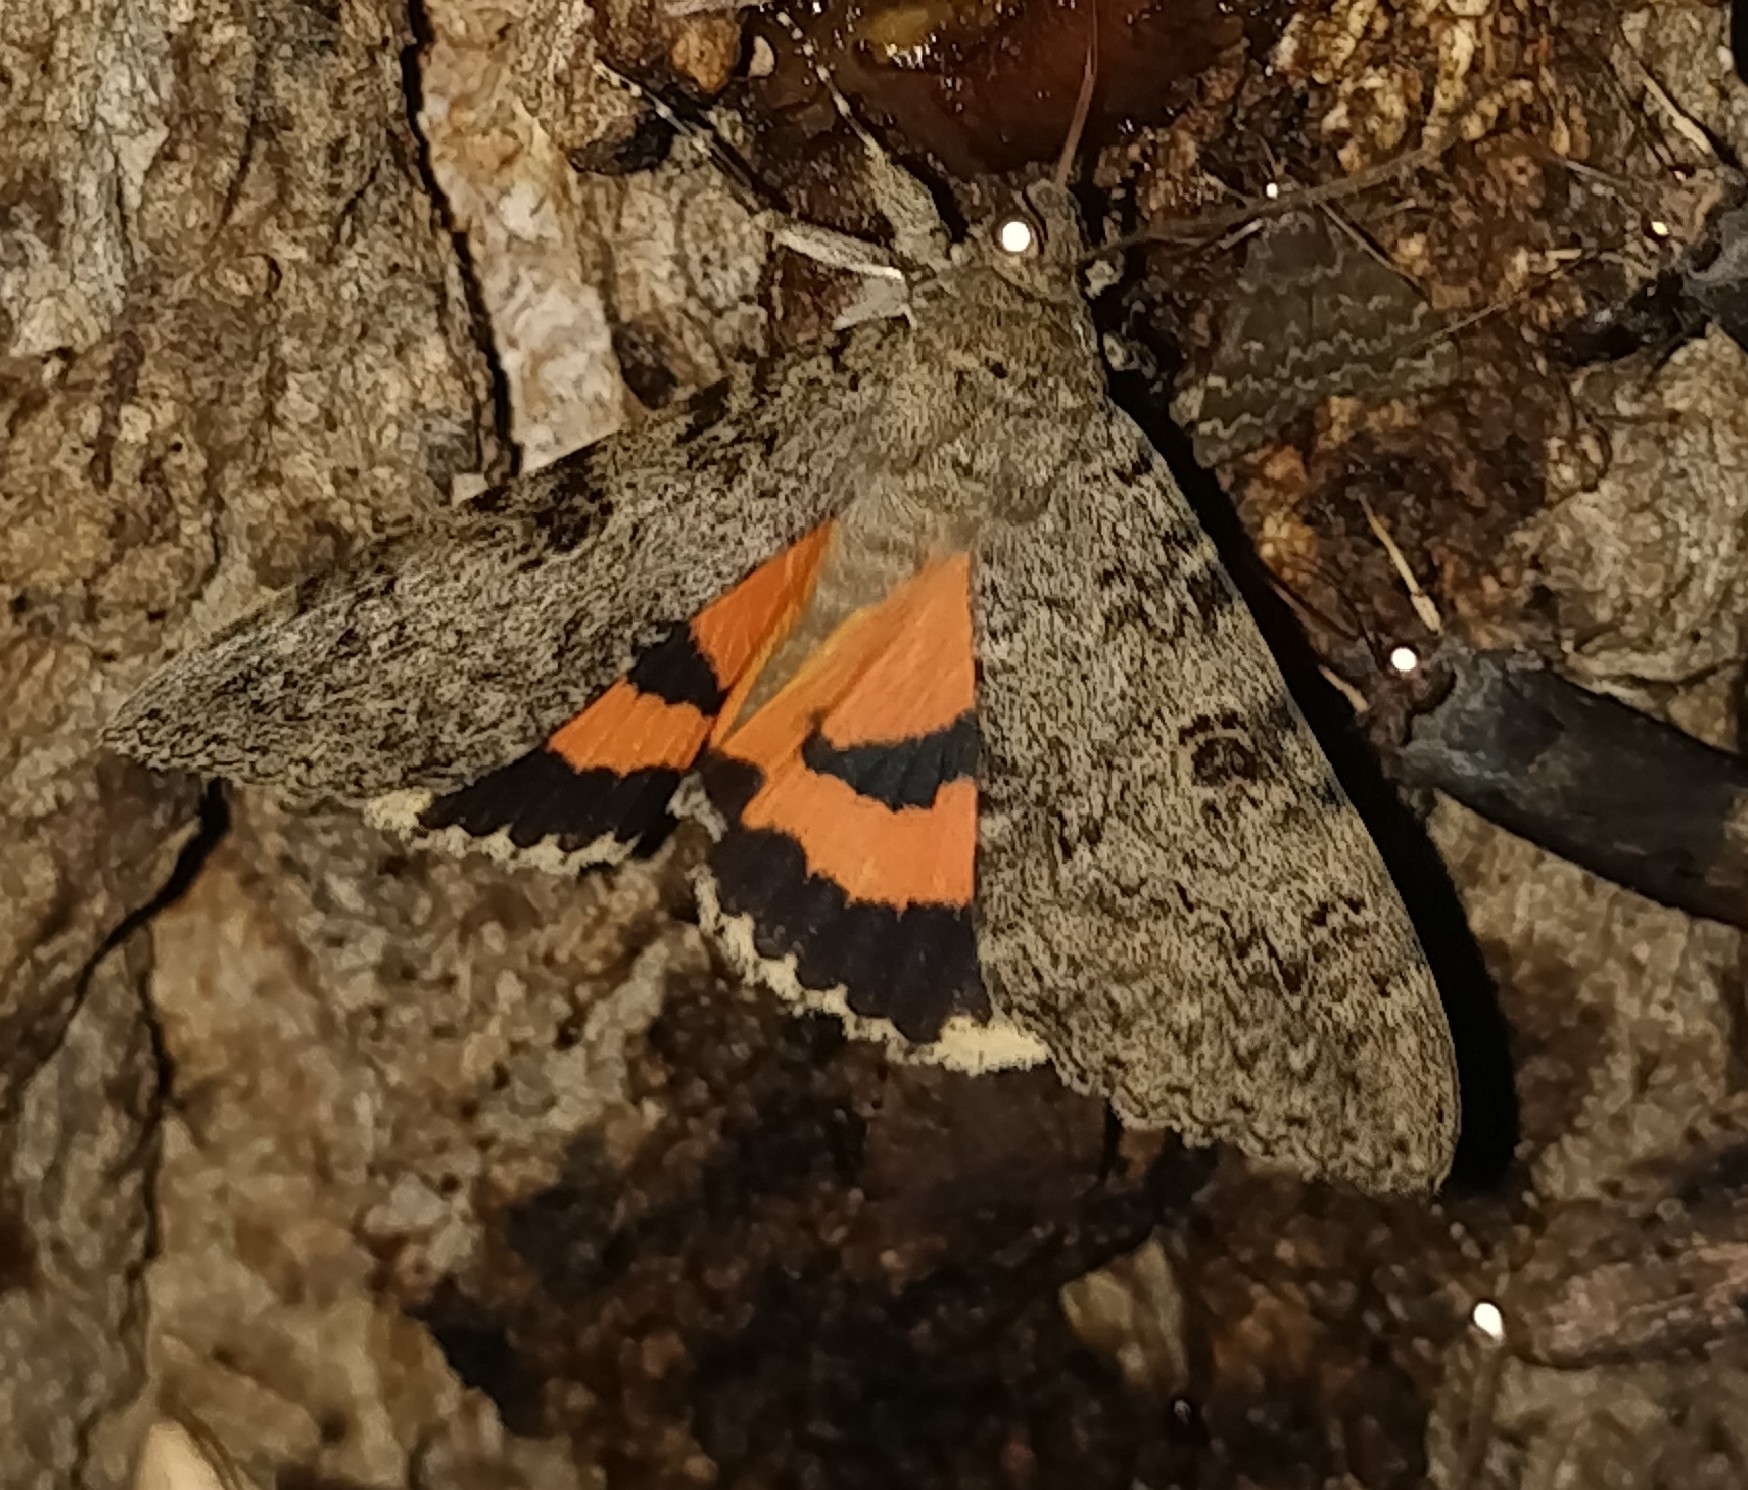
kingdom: Animalia
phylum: Arthropoda
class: Insecta
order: Lepidoptera
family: Erebidae
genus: Catocala
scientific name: Catocala luciana
